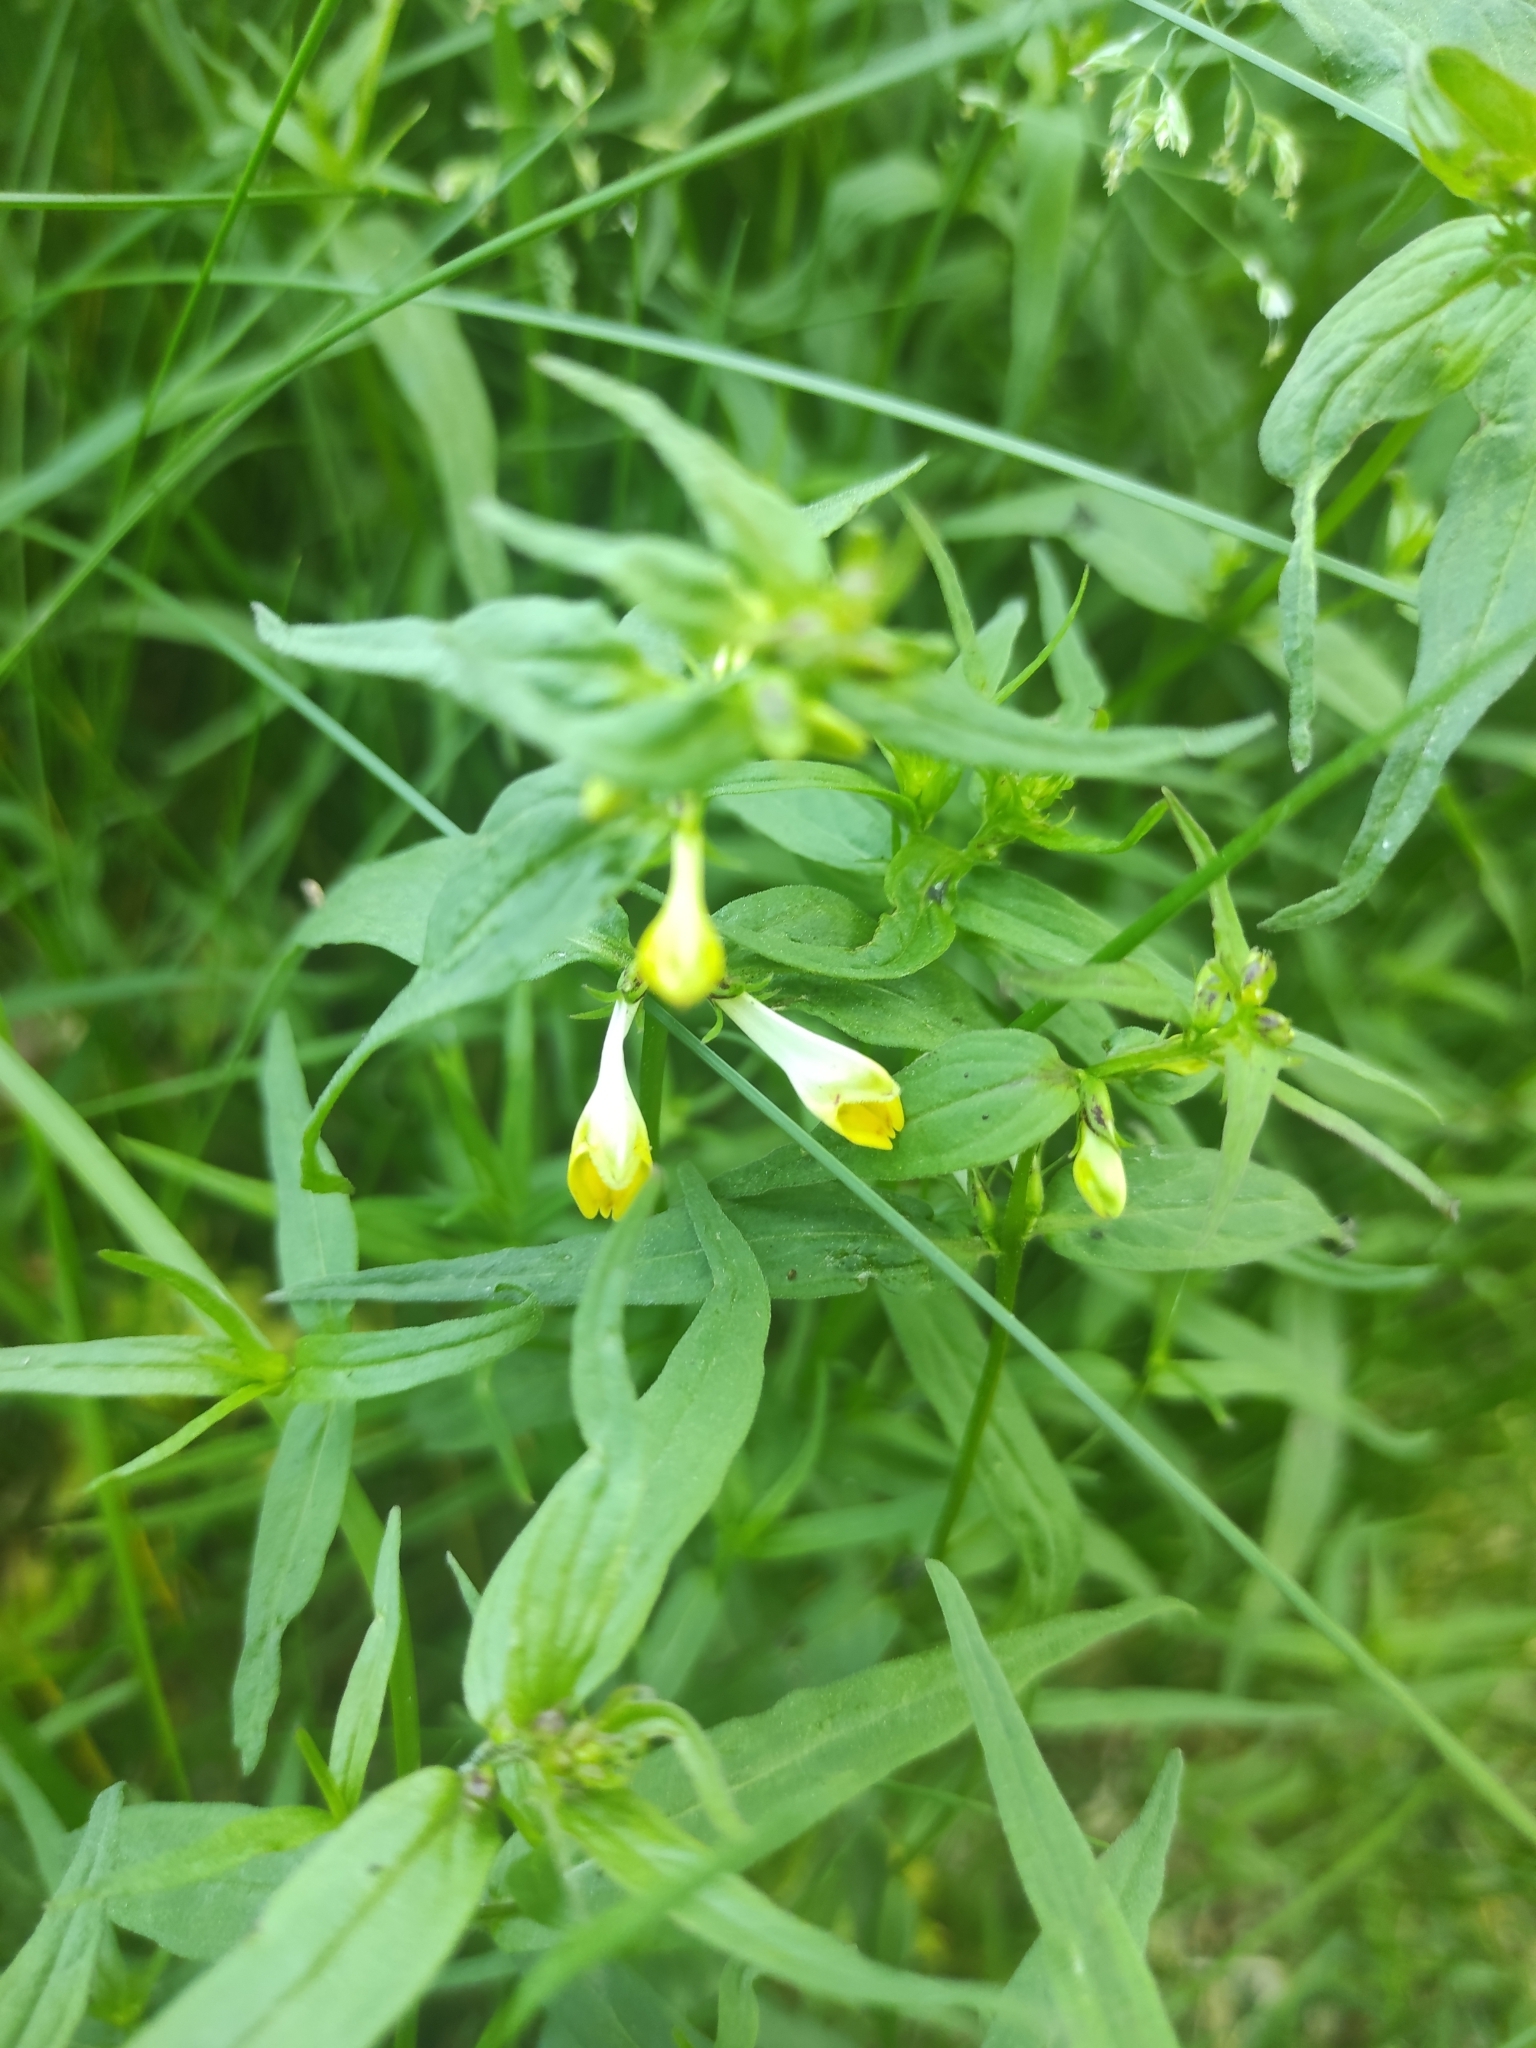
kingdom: Plantae
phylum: Tracheophyta
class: Magnoliopsida
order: Lamiales
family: Orobanchaceae
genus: Melampyrum
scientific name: Melampyrum pratense
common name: Common cow-wheat
